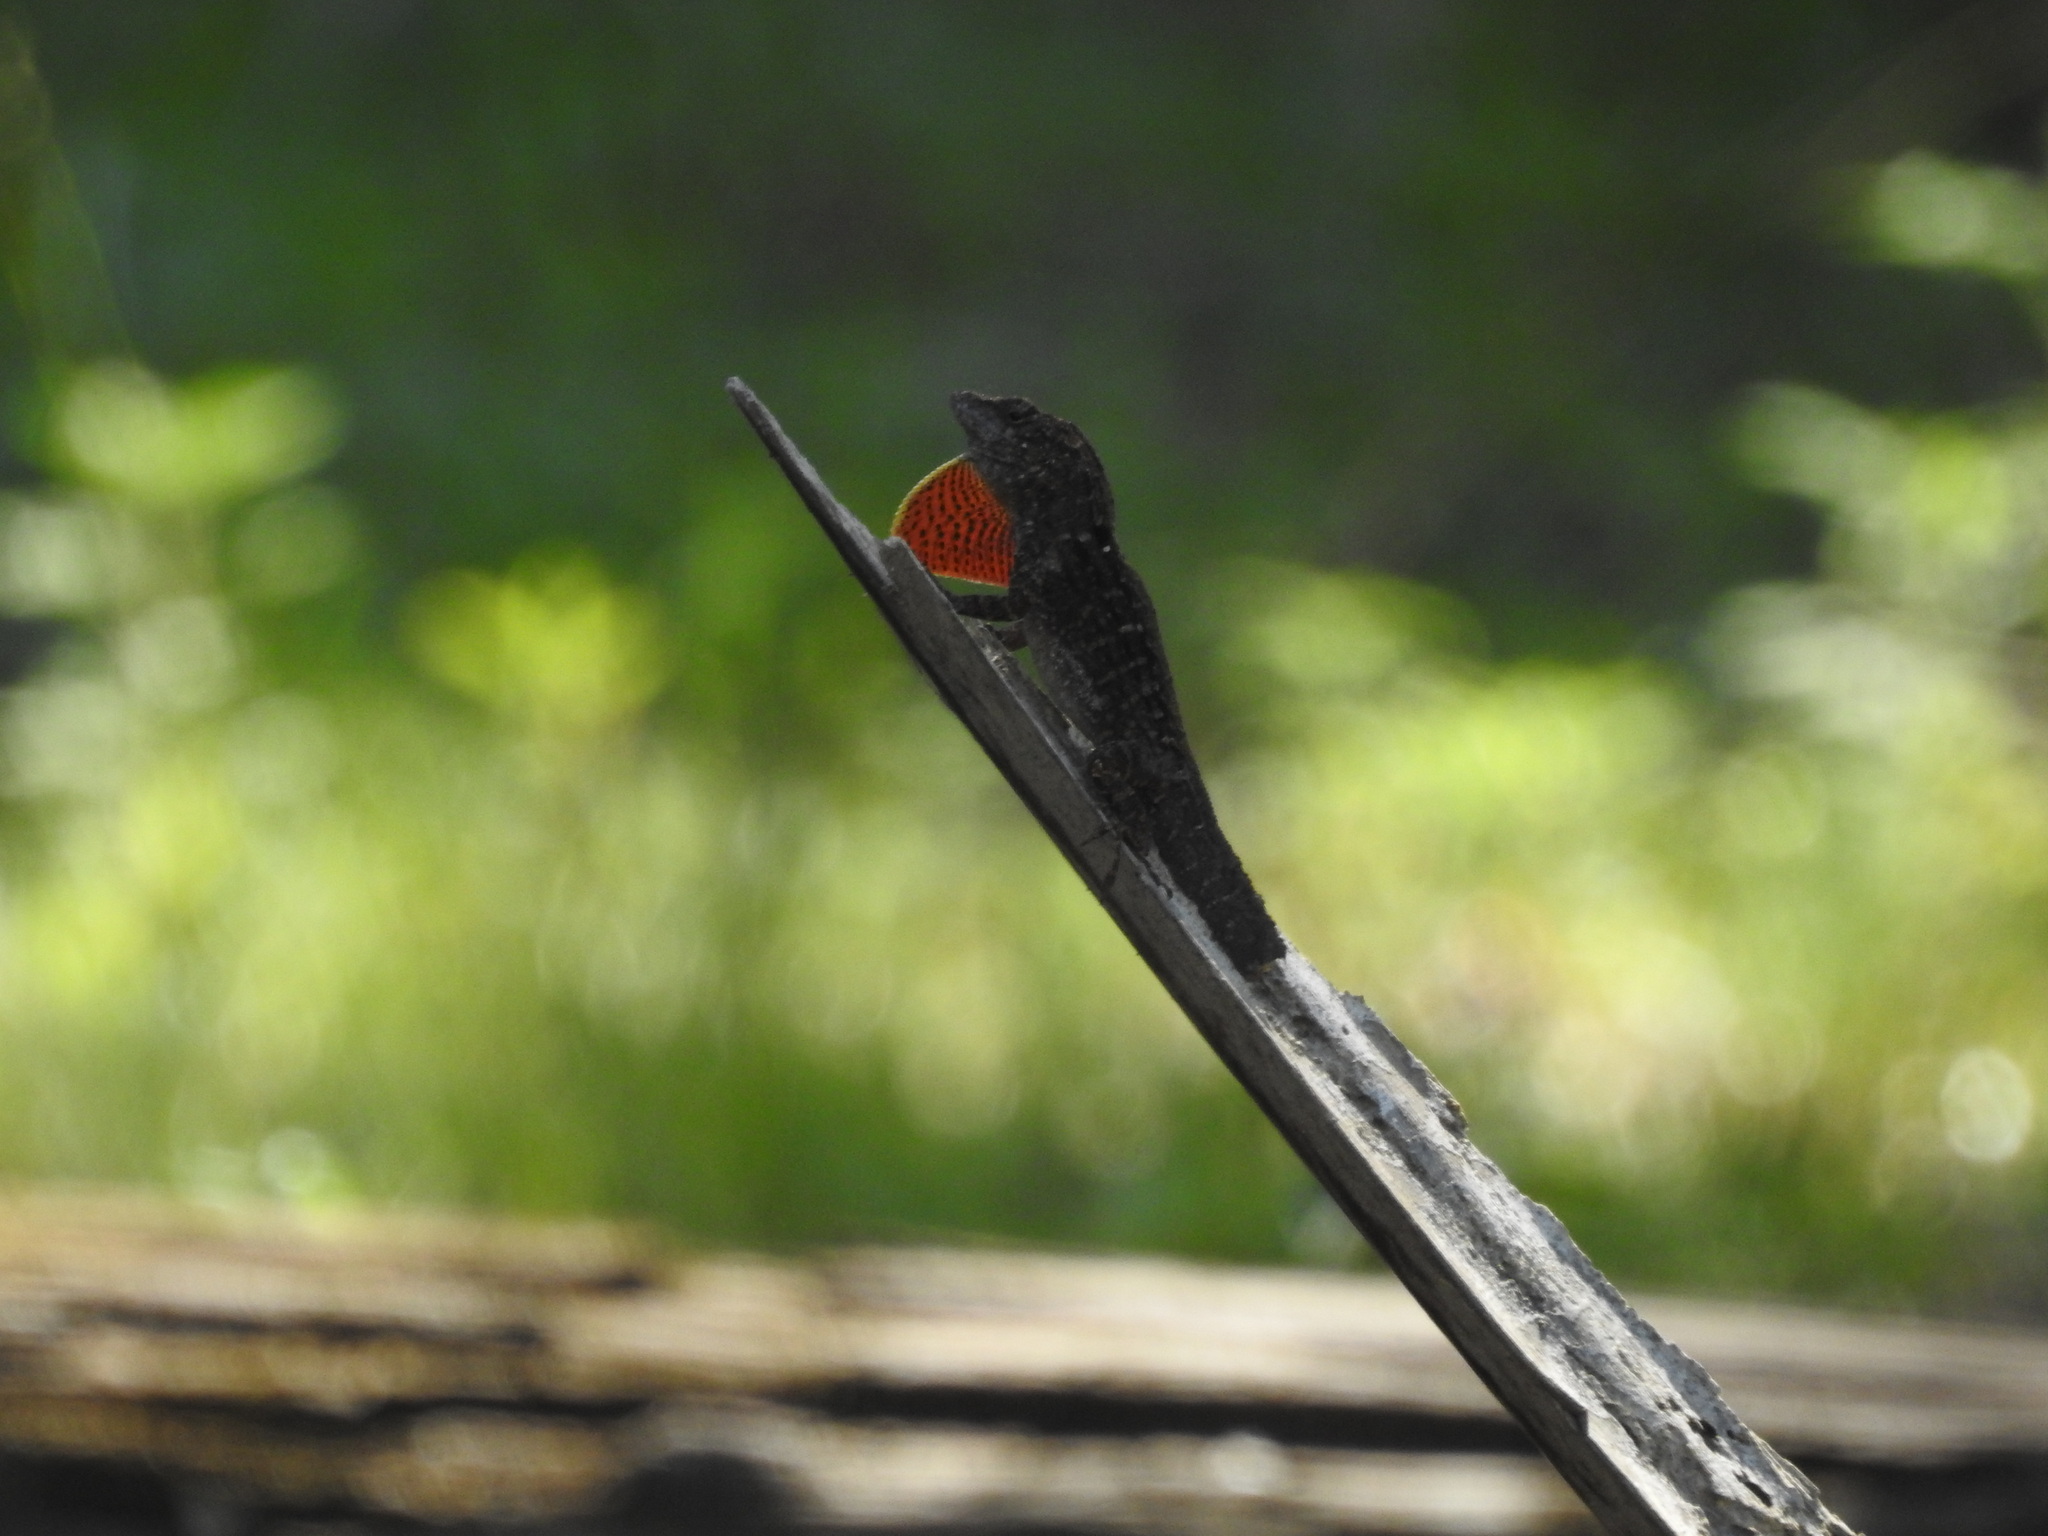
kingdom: Animalia
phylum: Chordata
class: Squamata
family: Dactyloidae
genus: Anolis
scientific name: Anolis sagrei
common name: Brown anole
